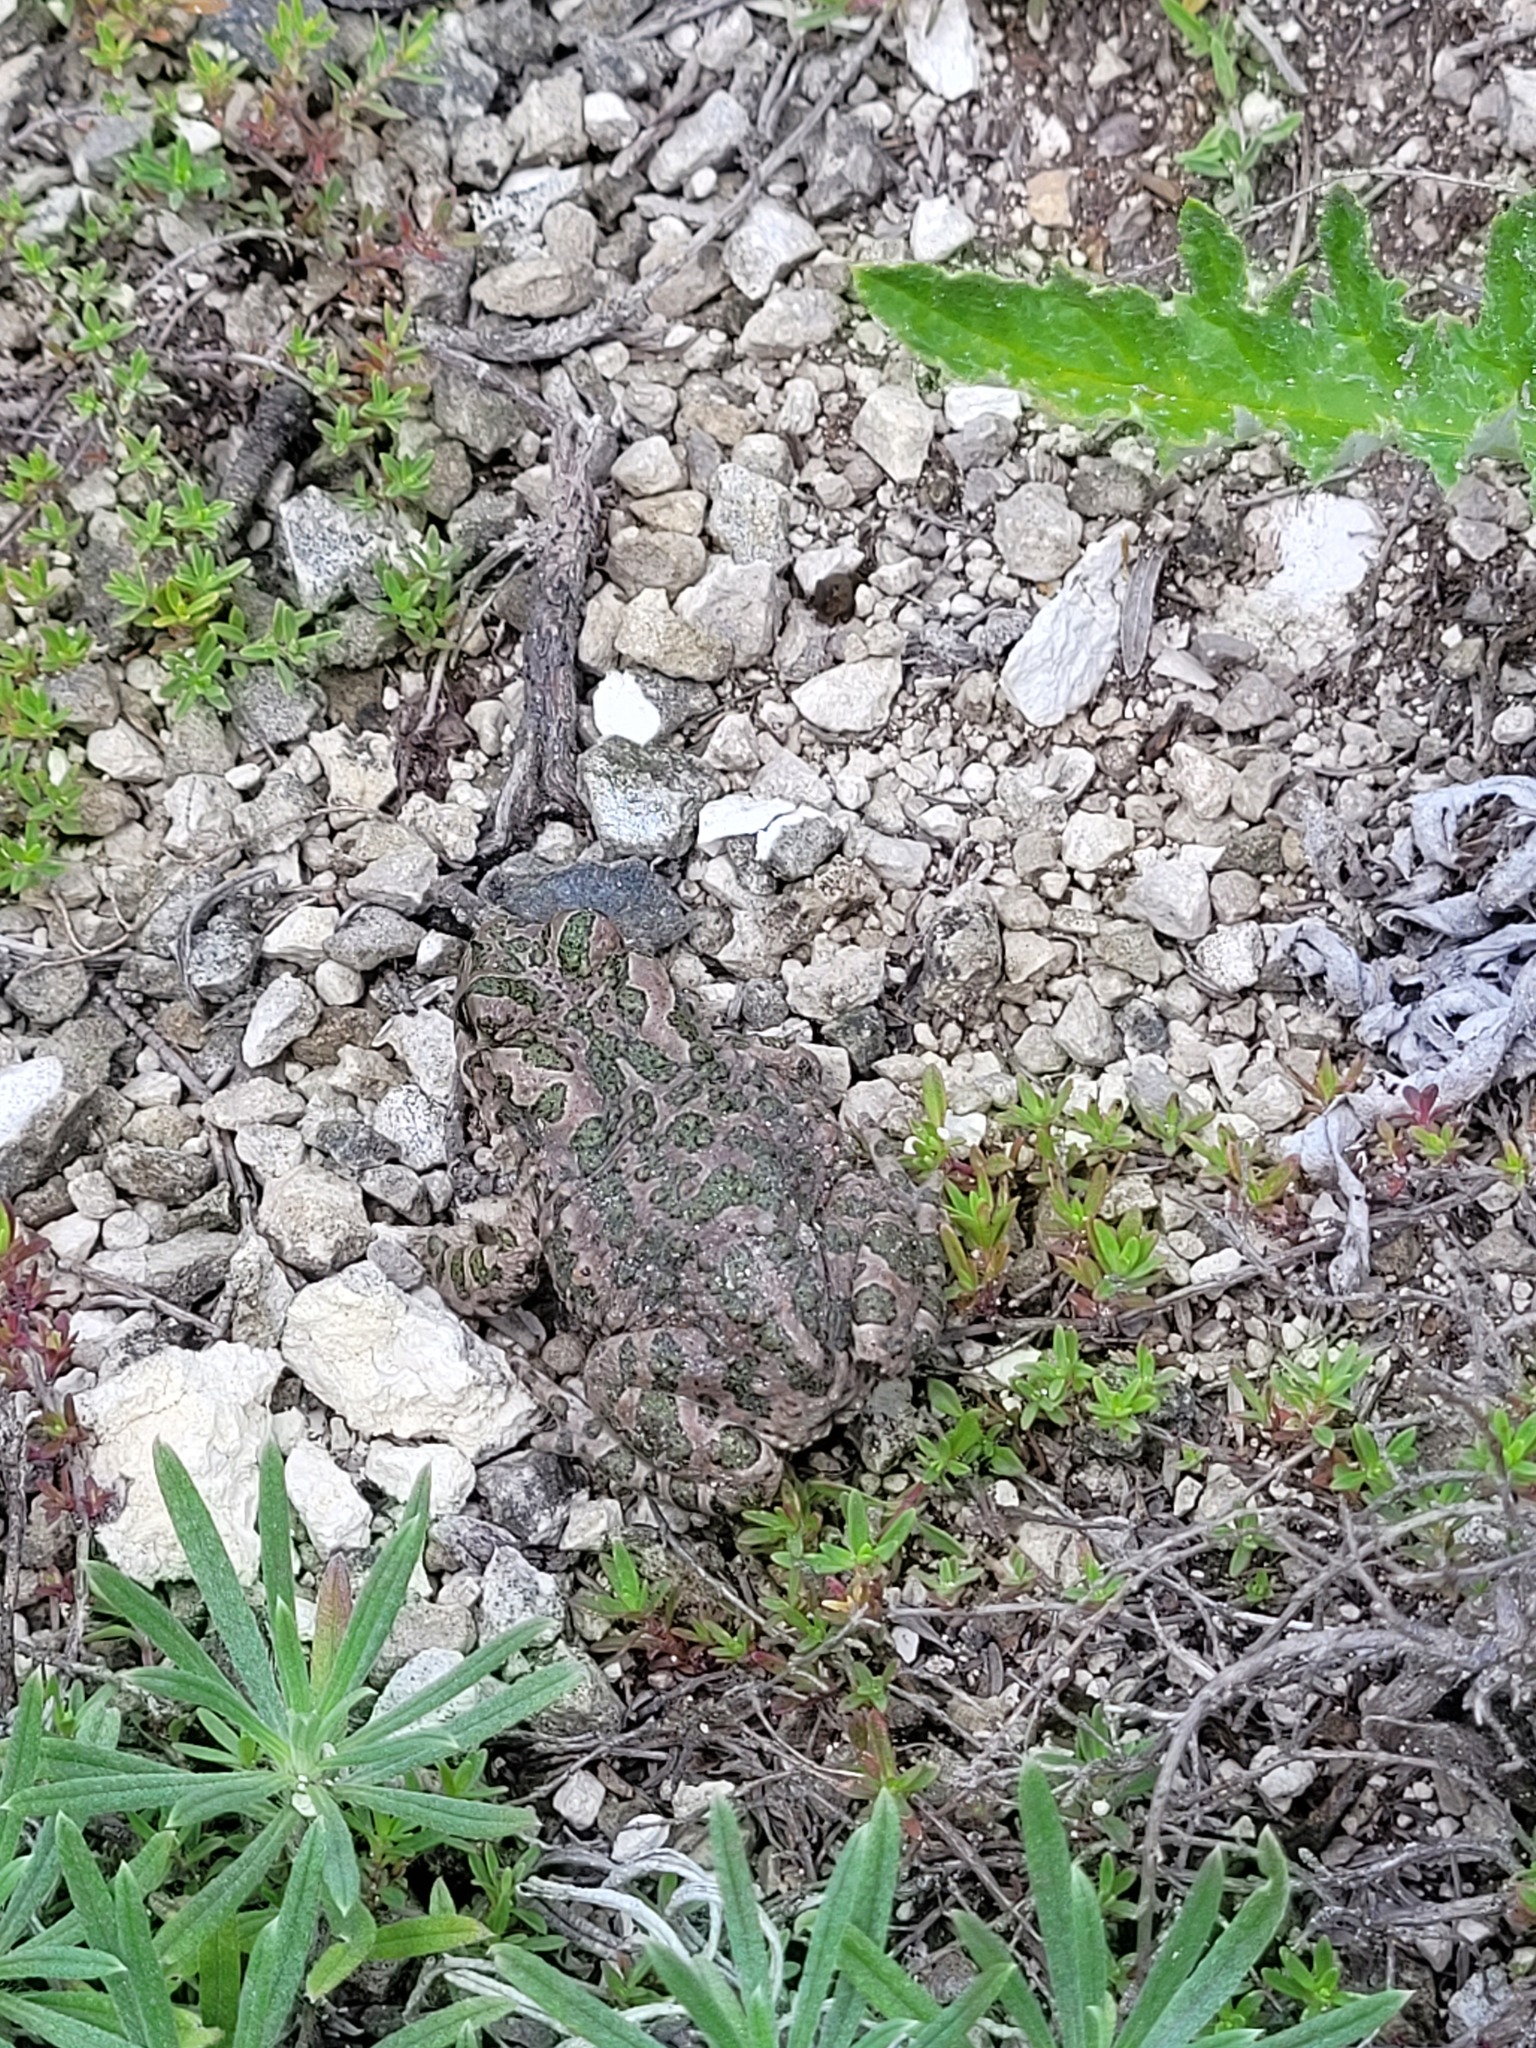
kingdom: Animalia
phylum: Chordata
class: Amphibia
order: Anura
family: Bufonidae
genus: Bufotes
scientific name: Bufotes viridis
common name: European green toad
